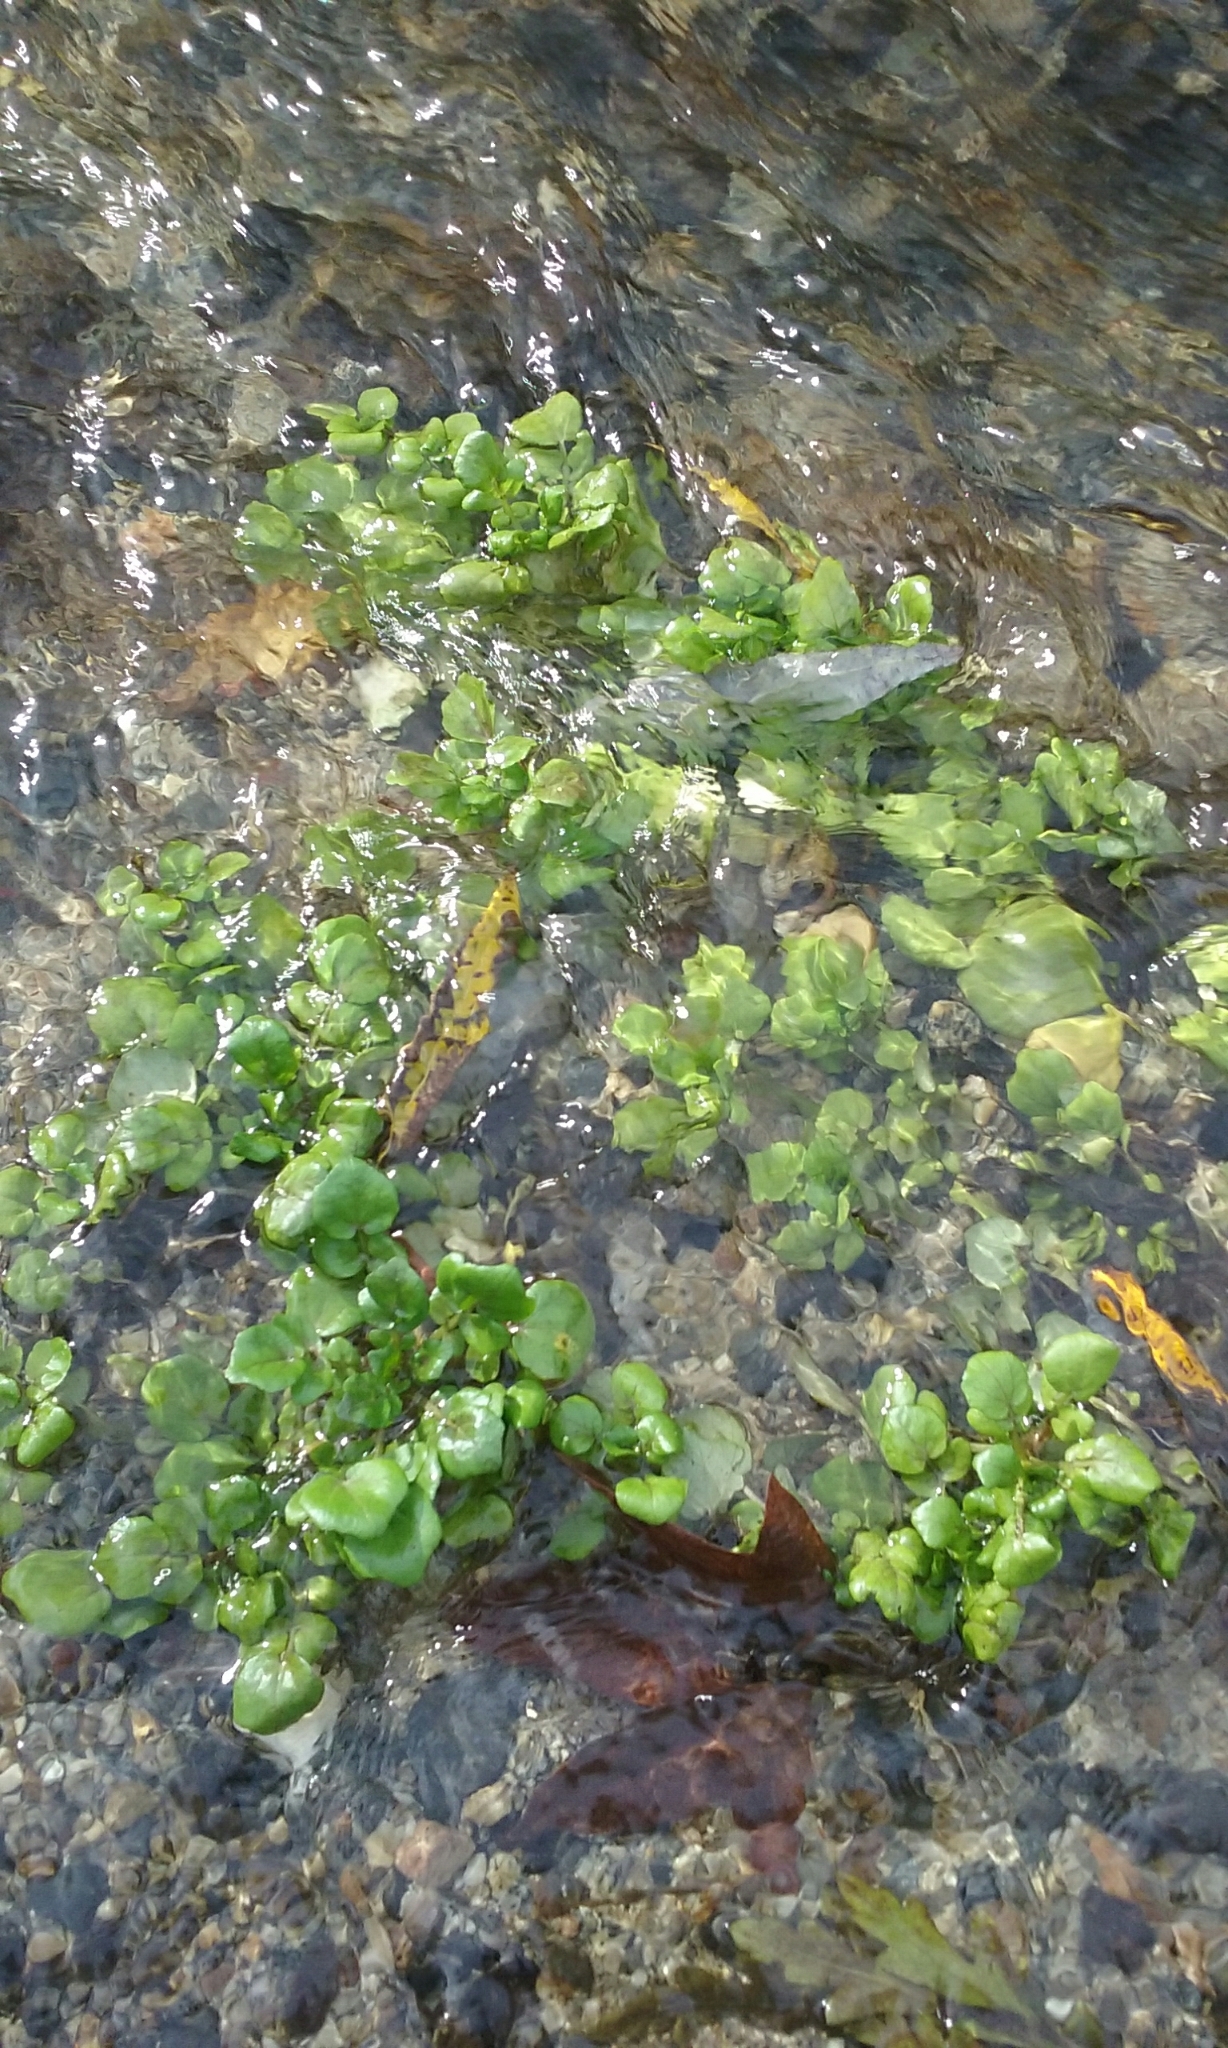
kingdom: Plantae
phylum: Tracheophyta
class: Magnoliopsida
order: Brassicales
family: Brassicaceae
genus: Nasturtium
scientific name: Nasturtium officinale
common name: Watercress
